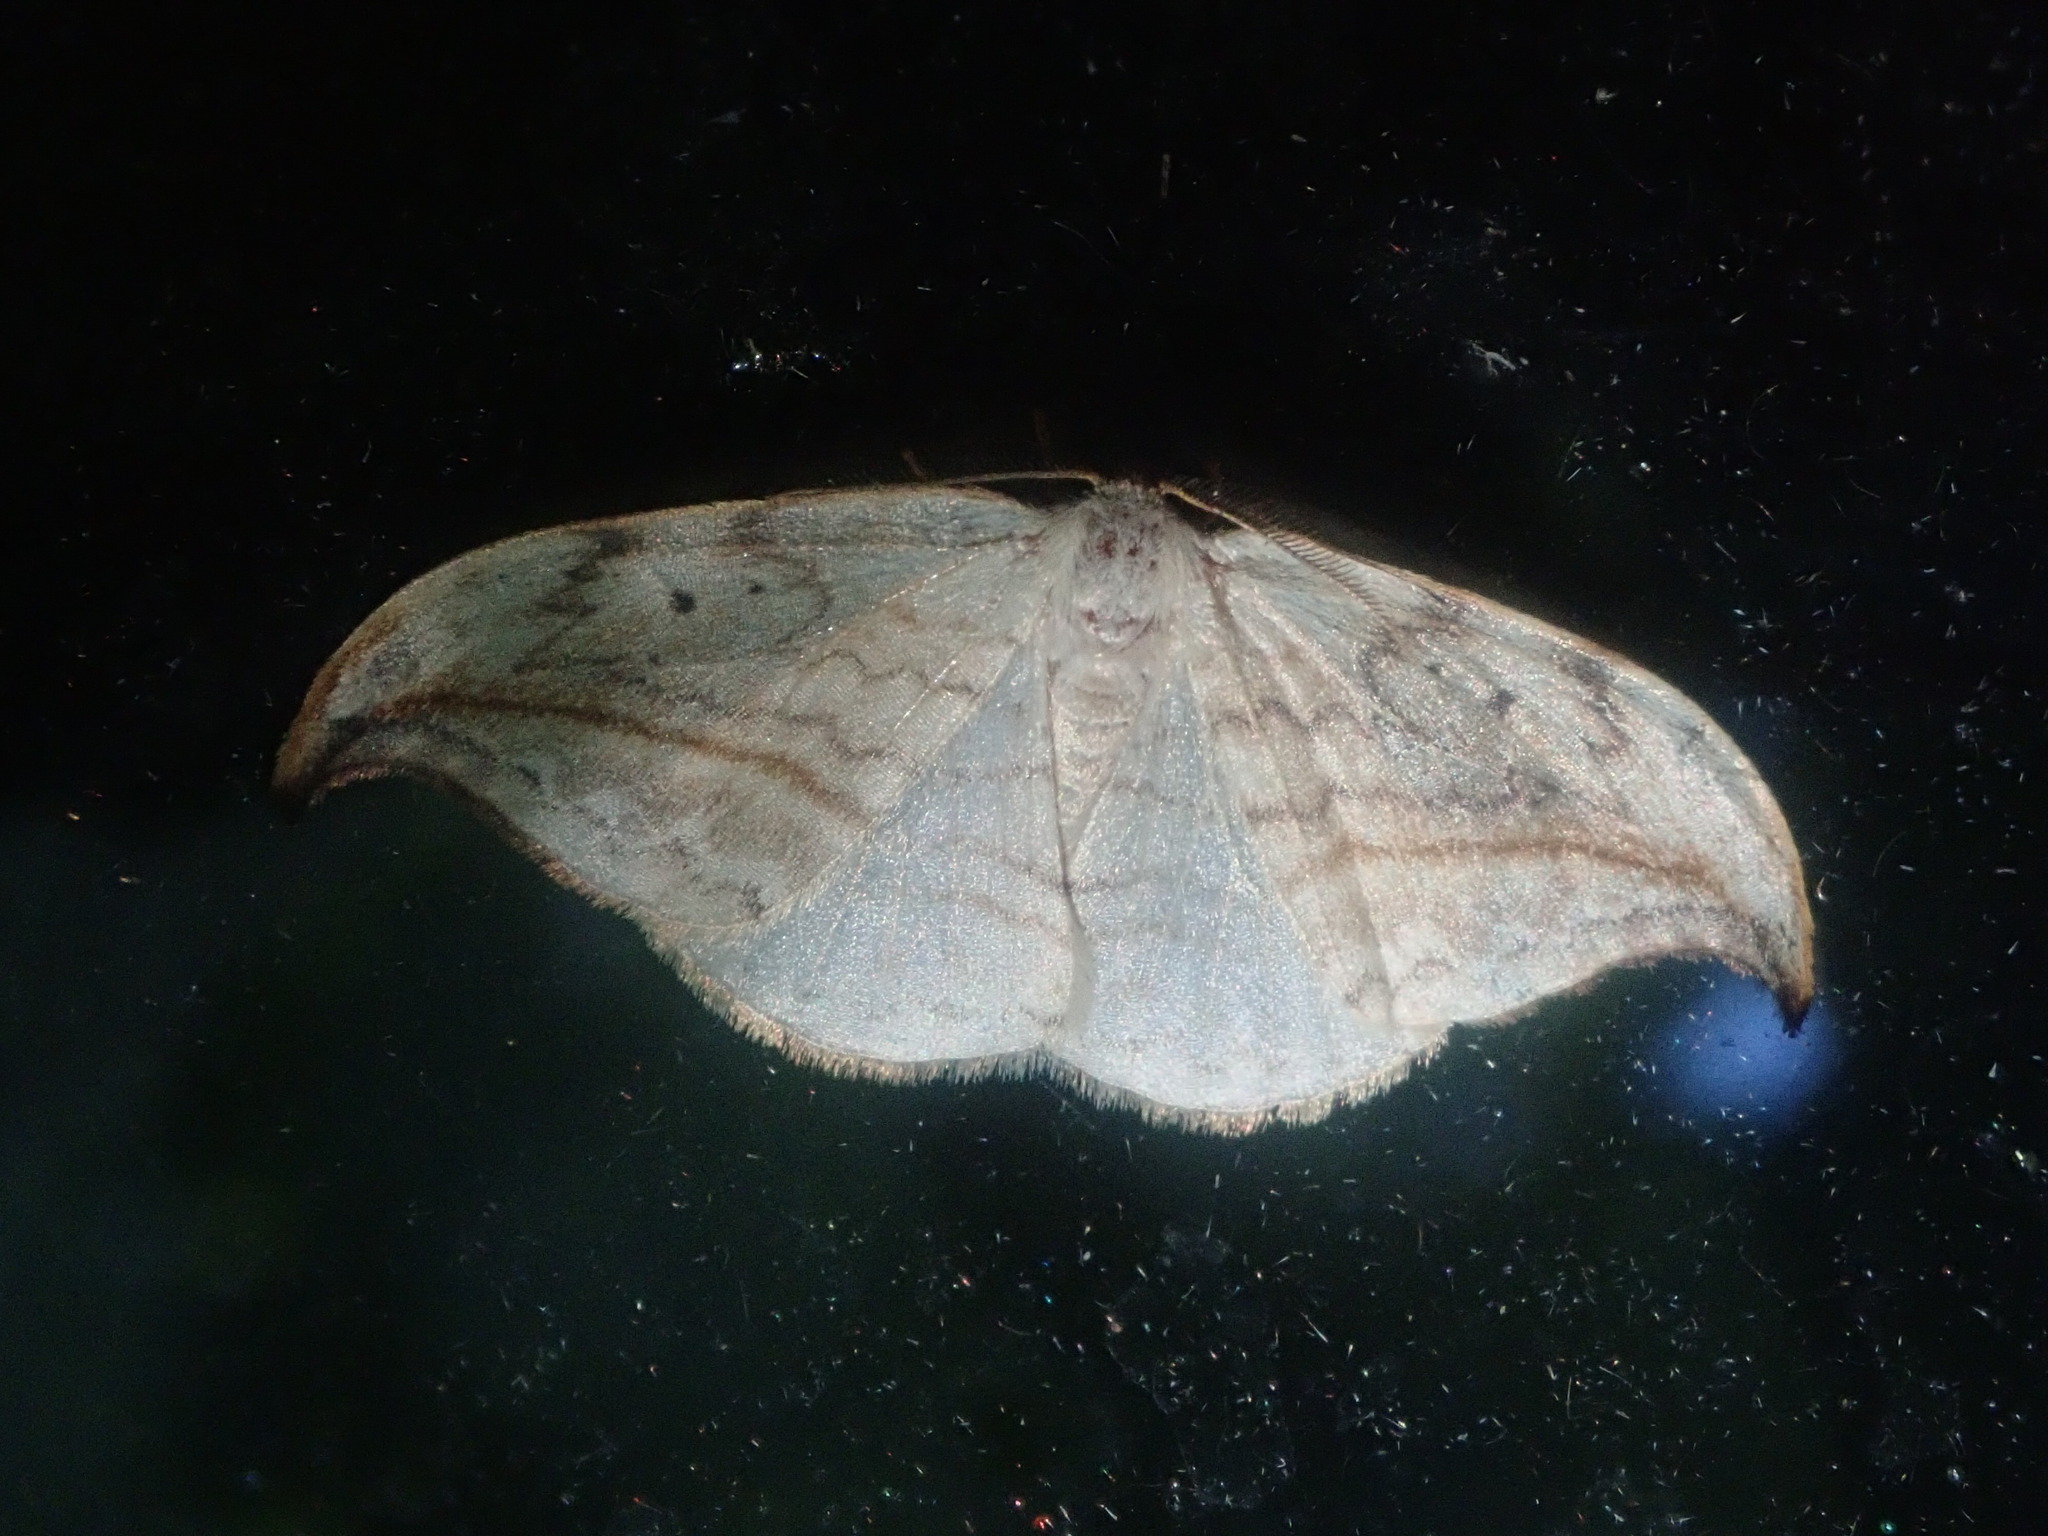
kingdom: Animalia
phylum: Arthropoda
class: Insecta
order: Lepidoptera
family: Drepanidae
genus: Drepana
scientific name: Drepana arcuata
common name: Arched hooktip moth
